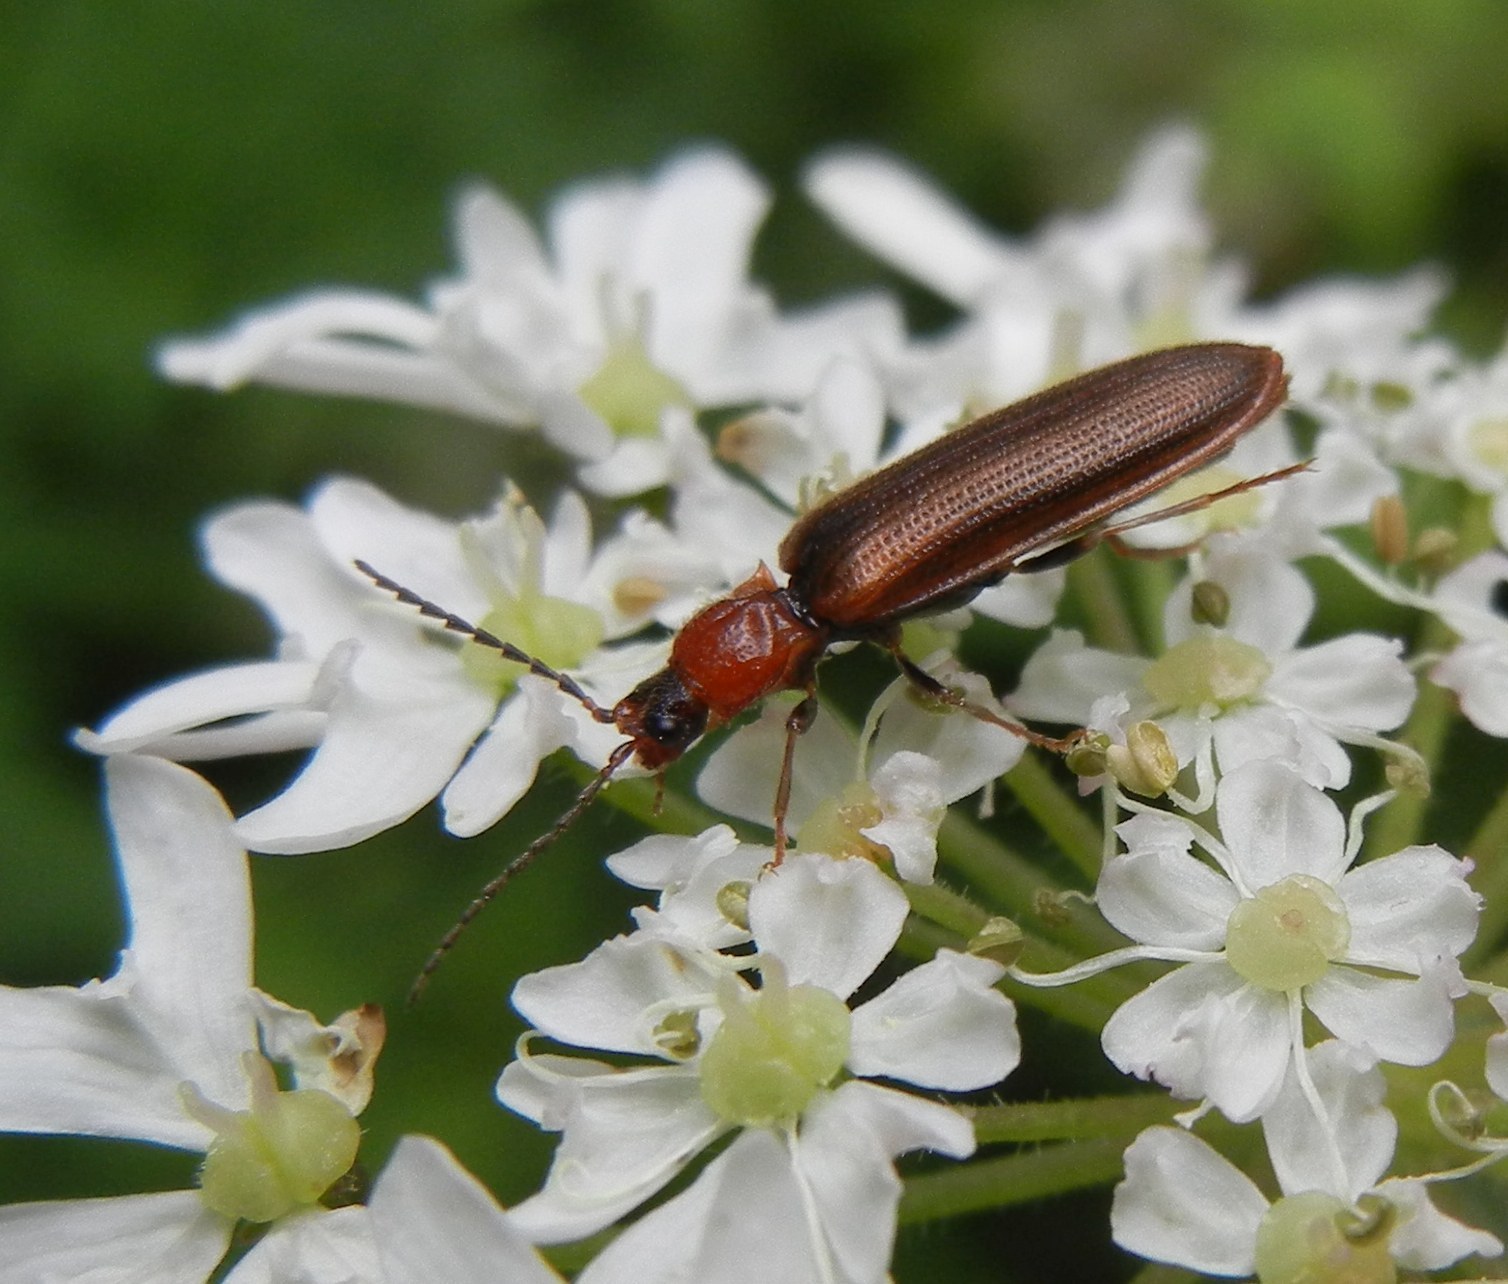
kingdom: Animalia
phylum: Arthropoda
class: Insecta
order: Coleoptera
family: Elateridae
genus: Denticollis
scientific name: Denticollis linearis
